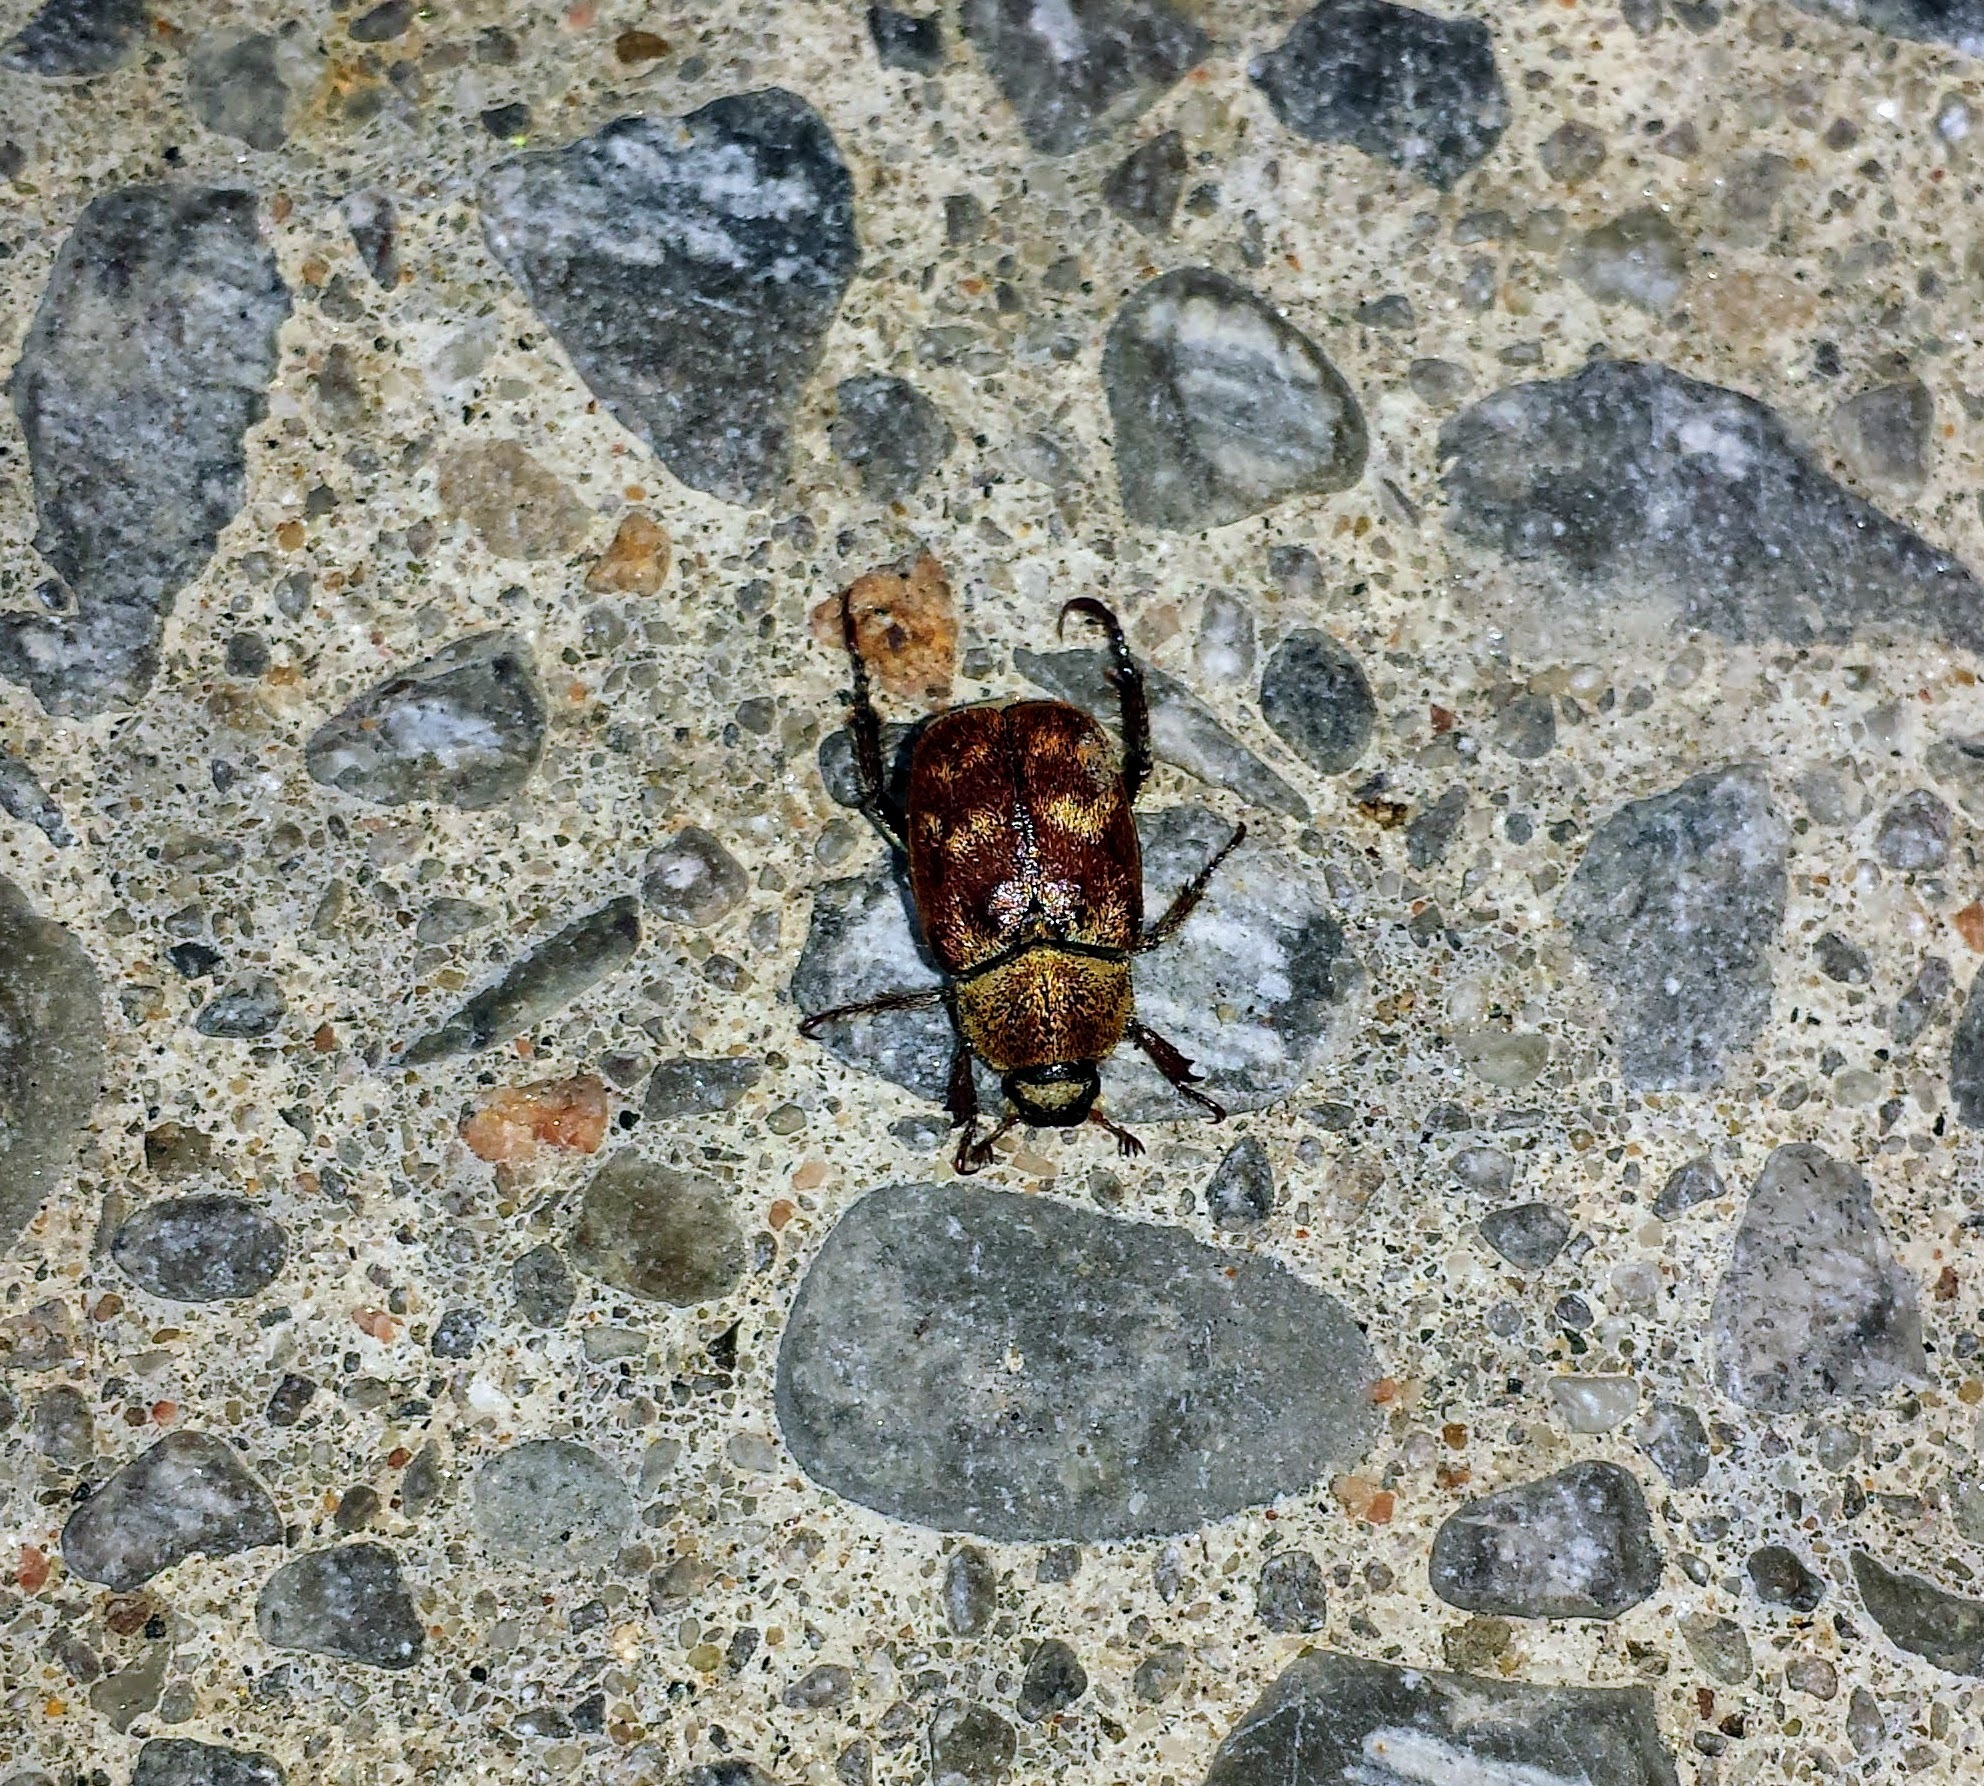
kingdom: Animalia
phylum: Arthropoda
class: Insecta
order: Coleoptera
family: Scarabaeidae
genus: Hoplia
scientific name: Hoplia trifasciata
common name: Three-lined hoplia
